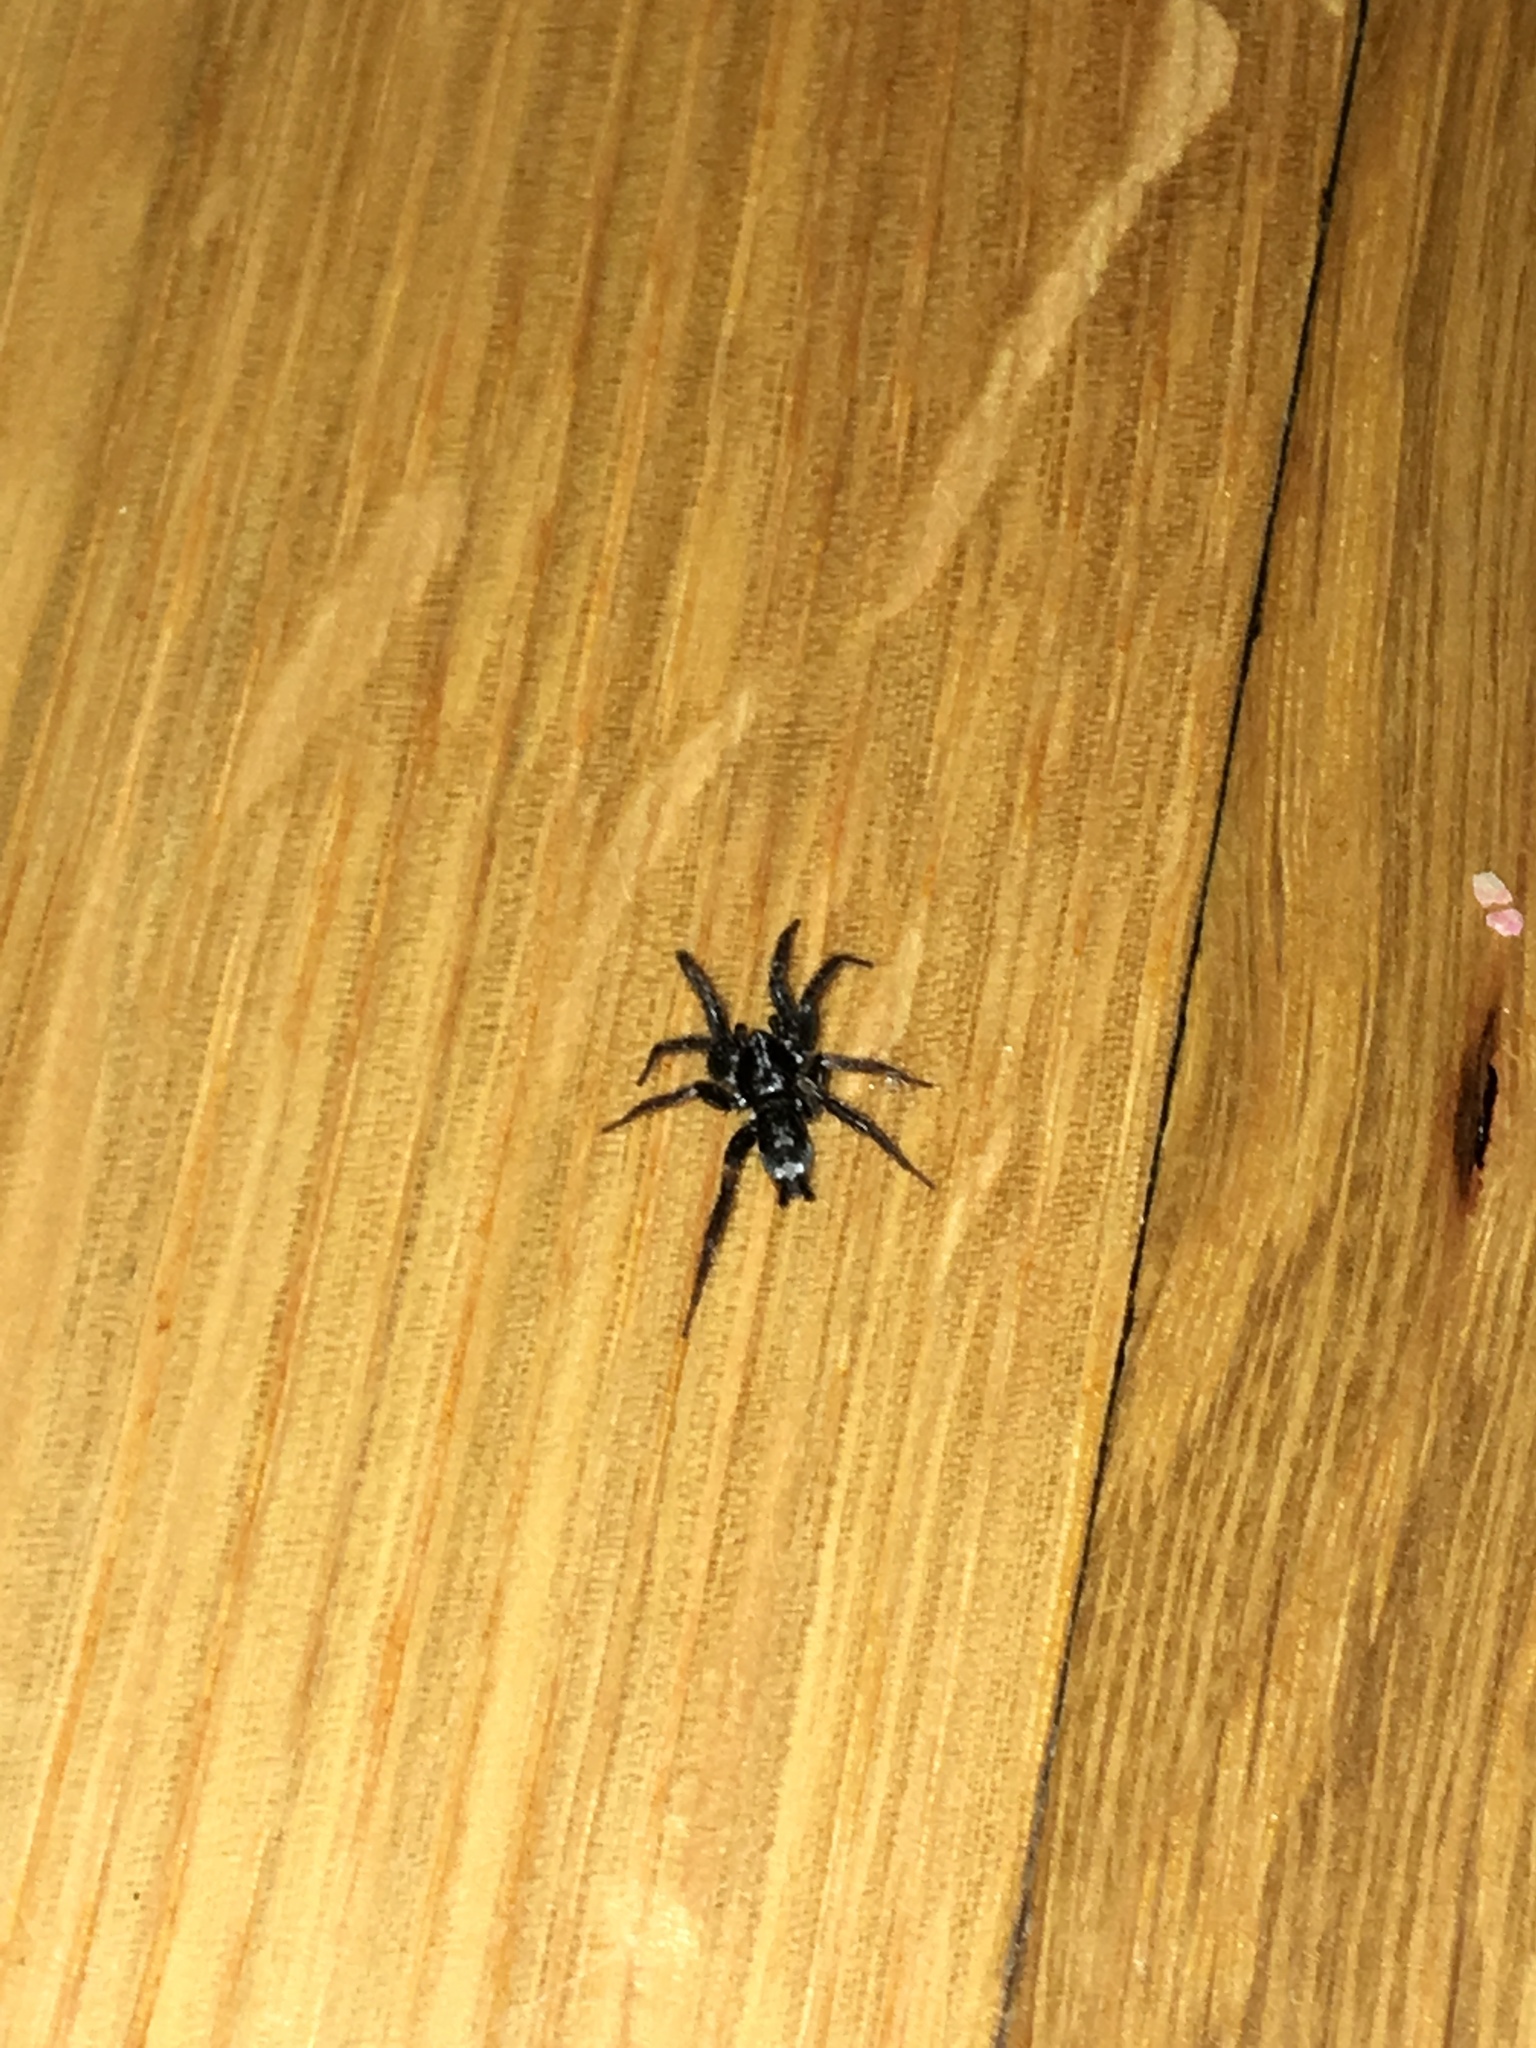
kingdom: Animalia
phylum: Arthropoda
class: Arachnida
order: Araneae
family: Gnaphosidae
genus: Herpyllus
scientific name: Herpyllus ecclesiasticus
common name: Eastern parson spider
